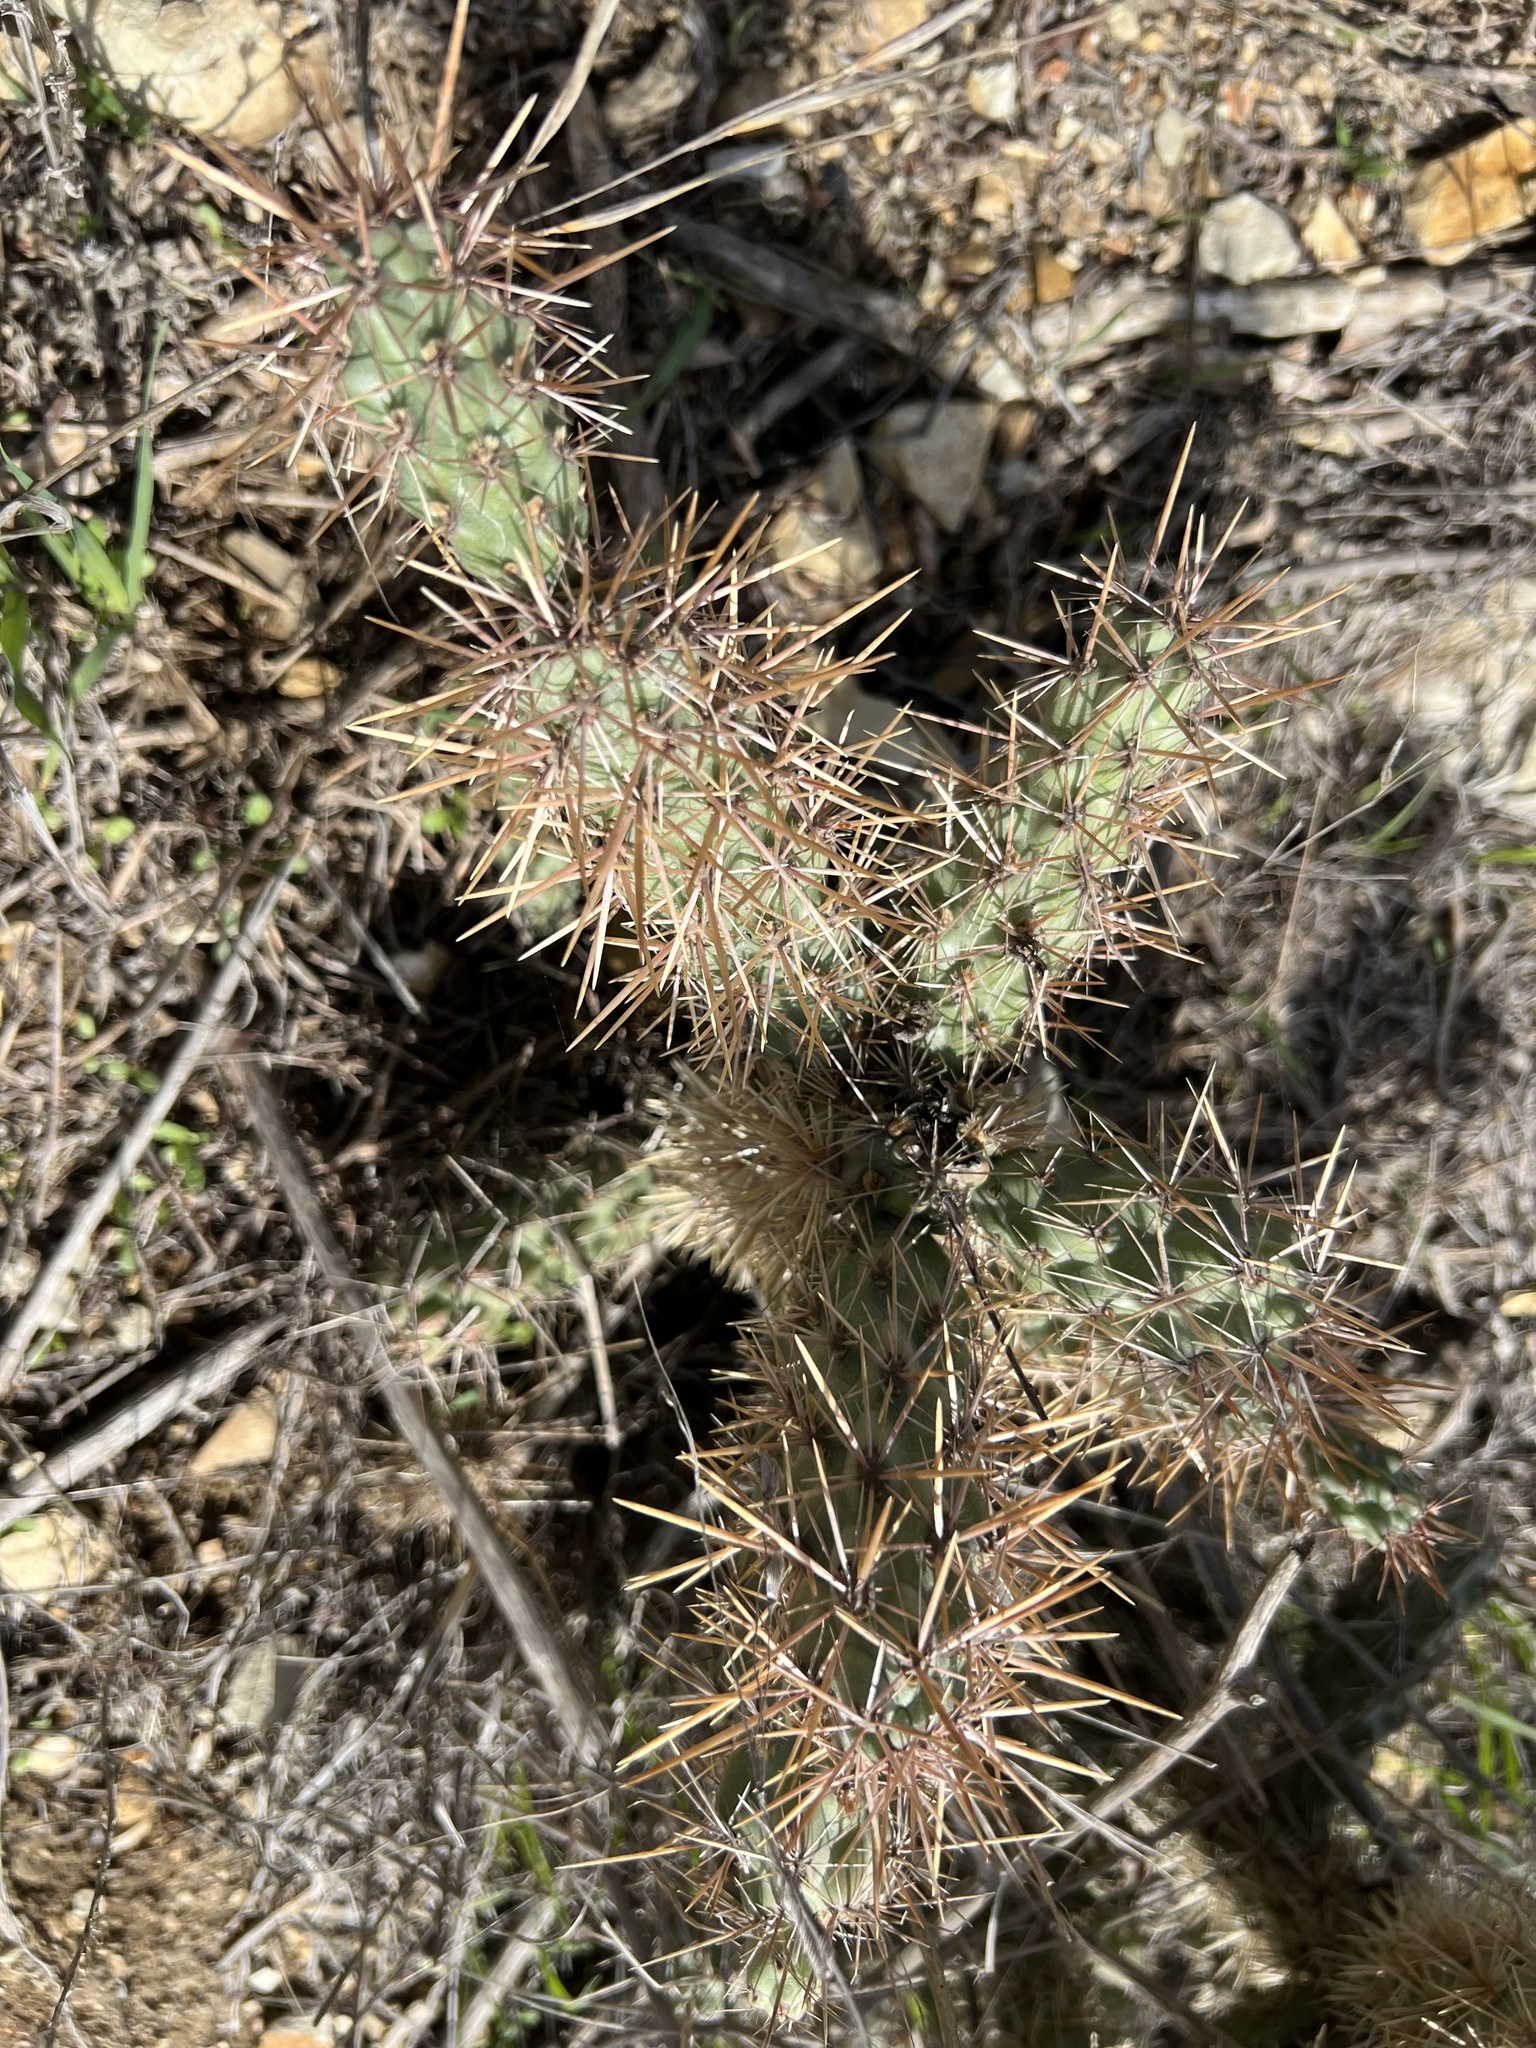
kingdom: Plantae
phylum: Tracheophyta
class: Magnoliopsida
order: Caryophyllales
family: Cactaceae
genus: Cylindropuntia
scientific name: Cylindropuntia prolifera
